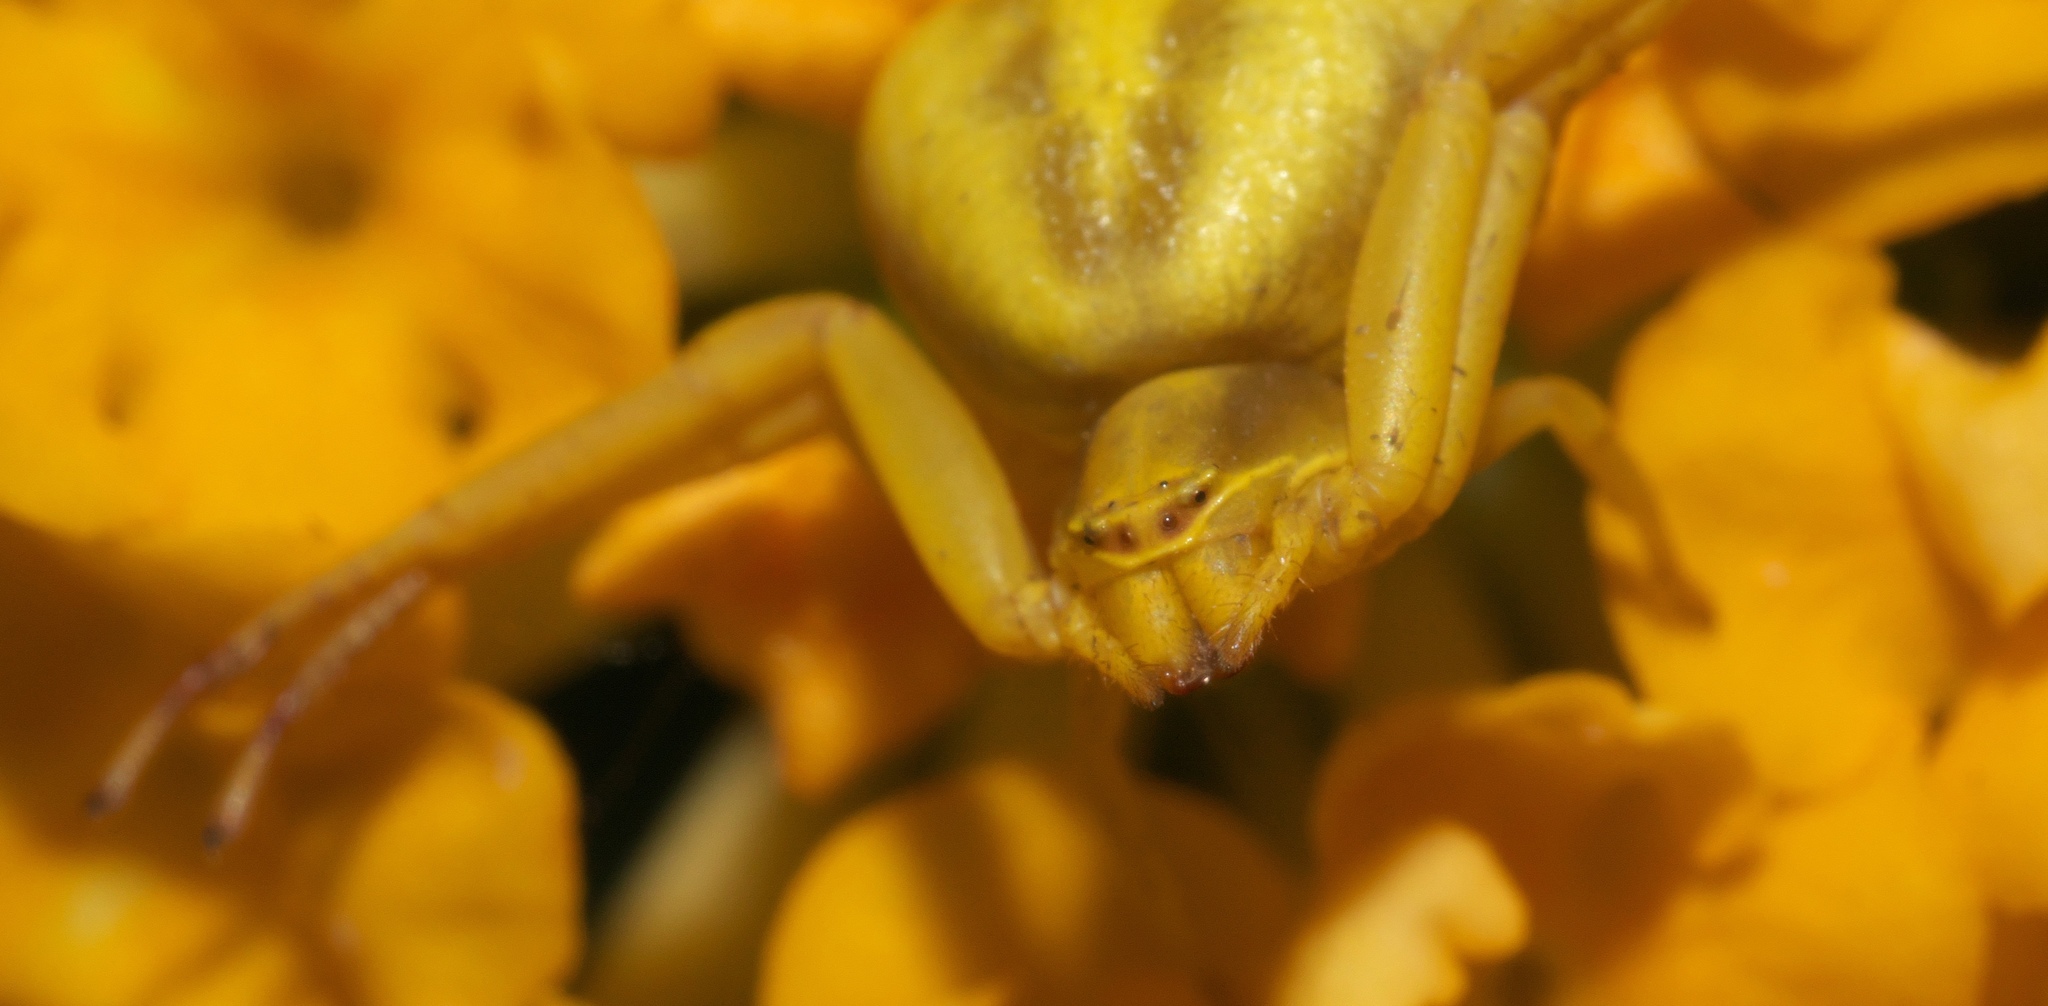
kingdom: Animalia
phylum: Arthropoda
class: Arachnida
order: Araneae
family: Thomisidae
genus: Misumenoides
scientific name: Misumenoides formosipes
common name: White-banded crab spider
